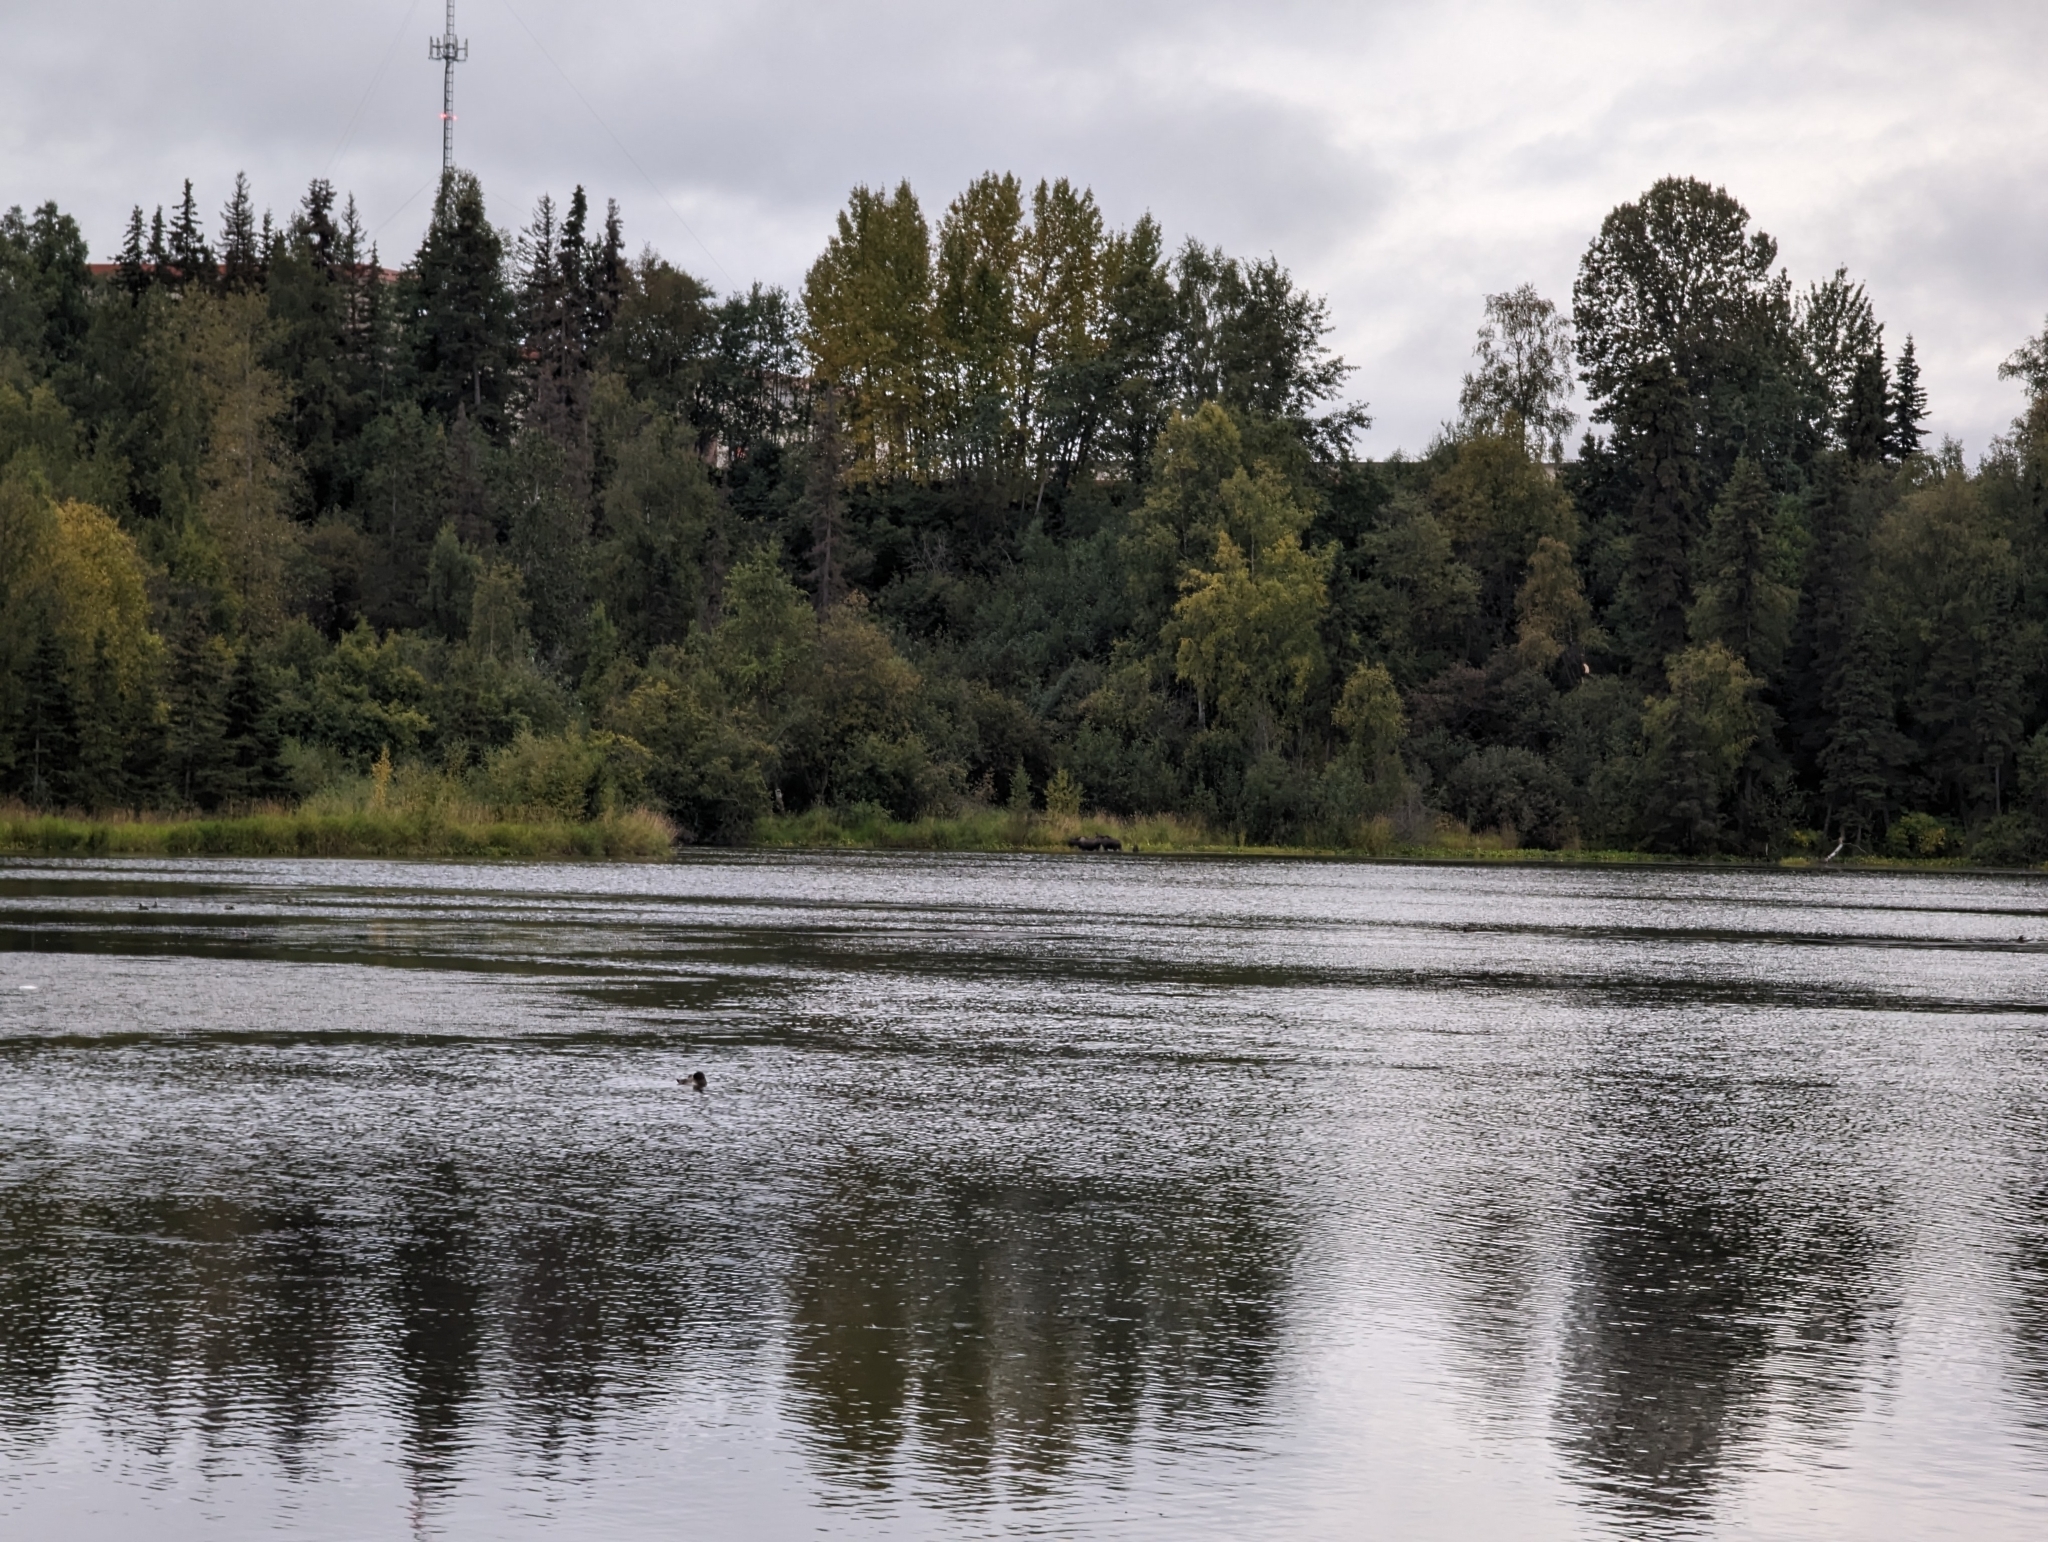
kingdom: Animalia
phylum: Chordata
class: Mammalia
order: Artiodactyla
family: Cervidae
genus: Alces
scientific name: Alces alces
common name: Moose
